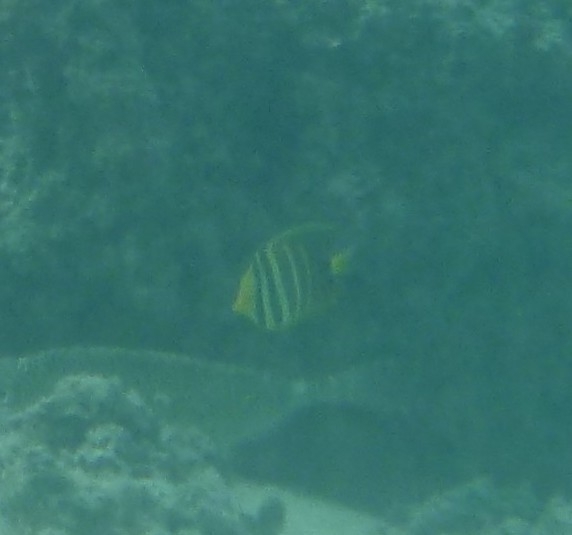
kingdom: Animalia
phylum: Chordata
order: Perciformes
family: Acanthuridae
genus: Zebrasoma
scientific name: Zebrasoma veliferum
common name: Sailfin surgeonfish
